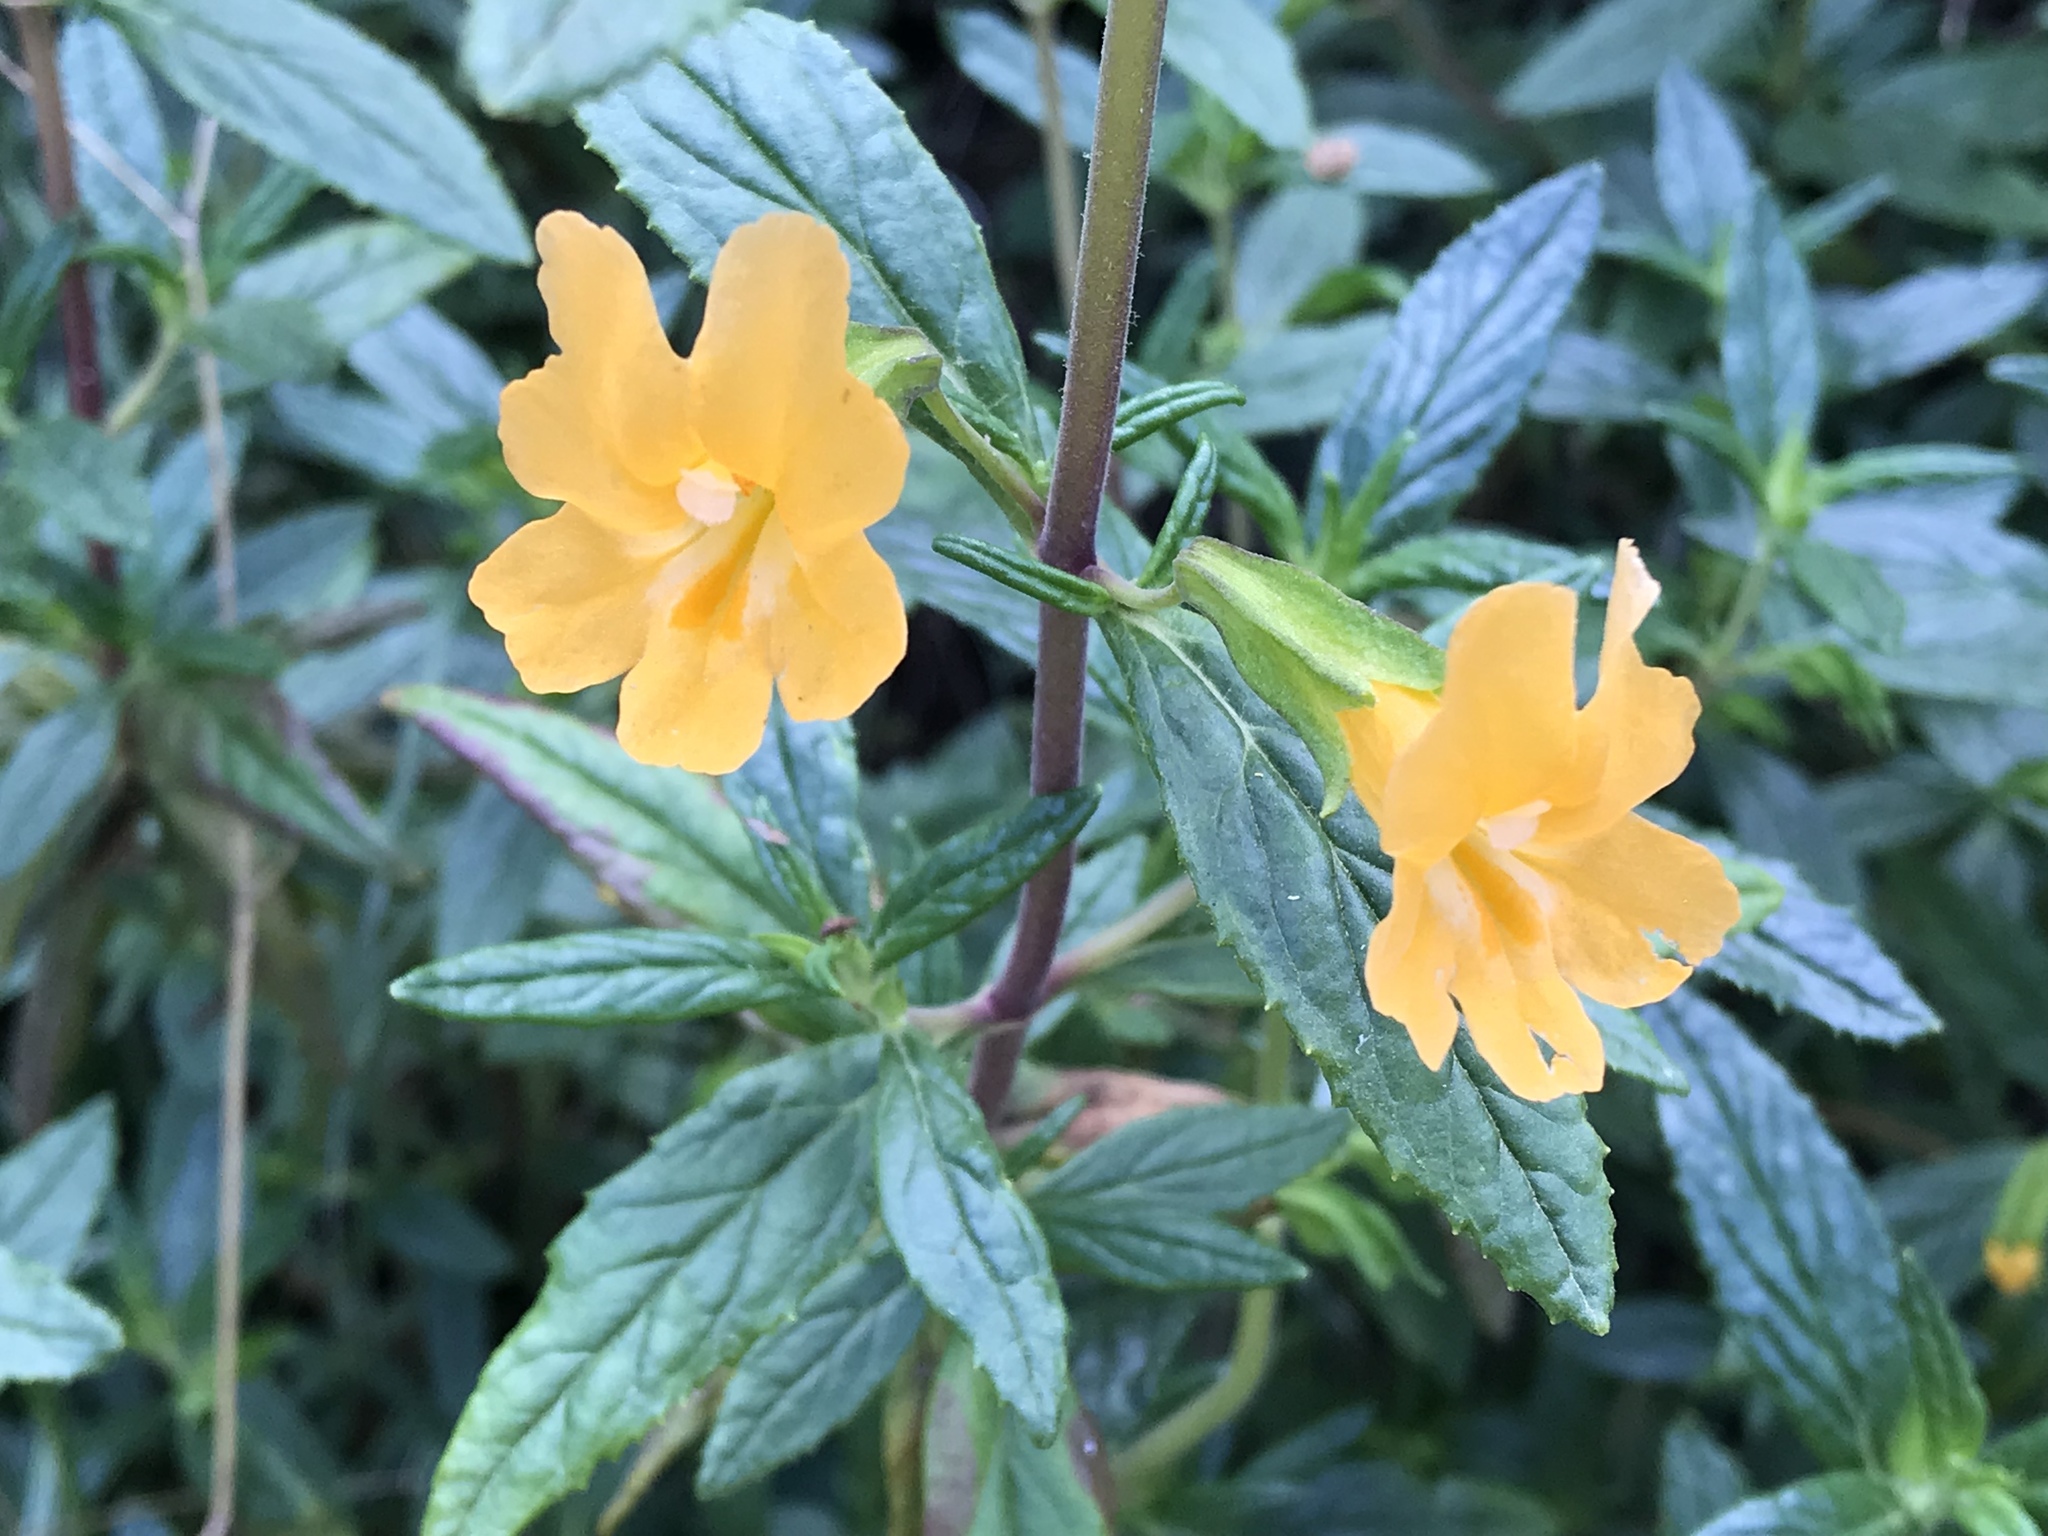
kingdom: Plantae
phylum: Tracheophyta
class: Magnoliopsida
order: Lamiales
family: Phrymaceae
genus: Diplacus
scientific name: Diplacus aurantiacus
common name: Bush monkey-flower
